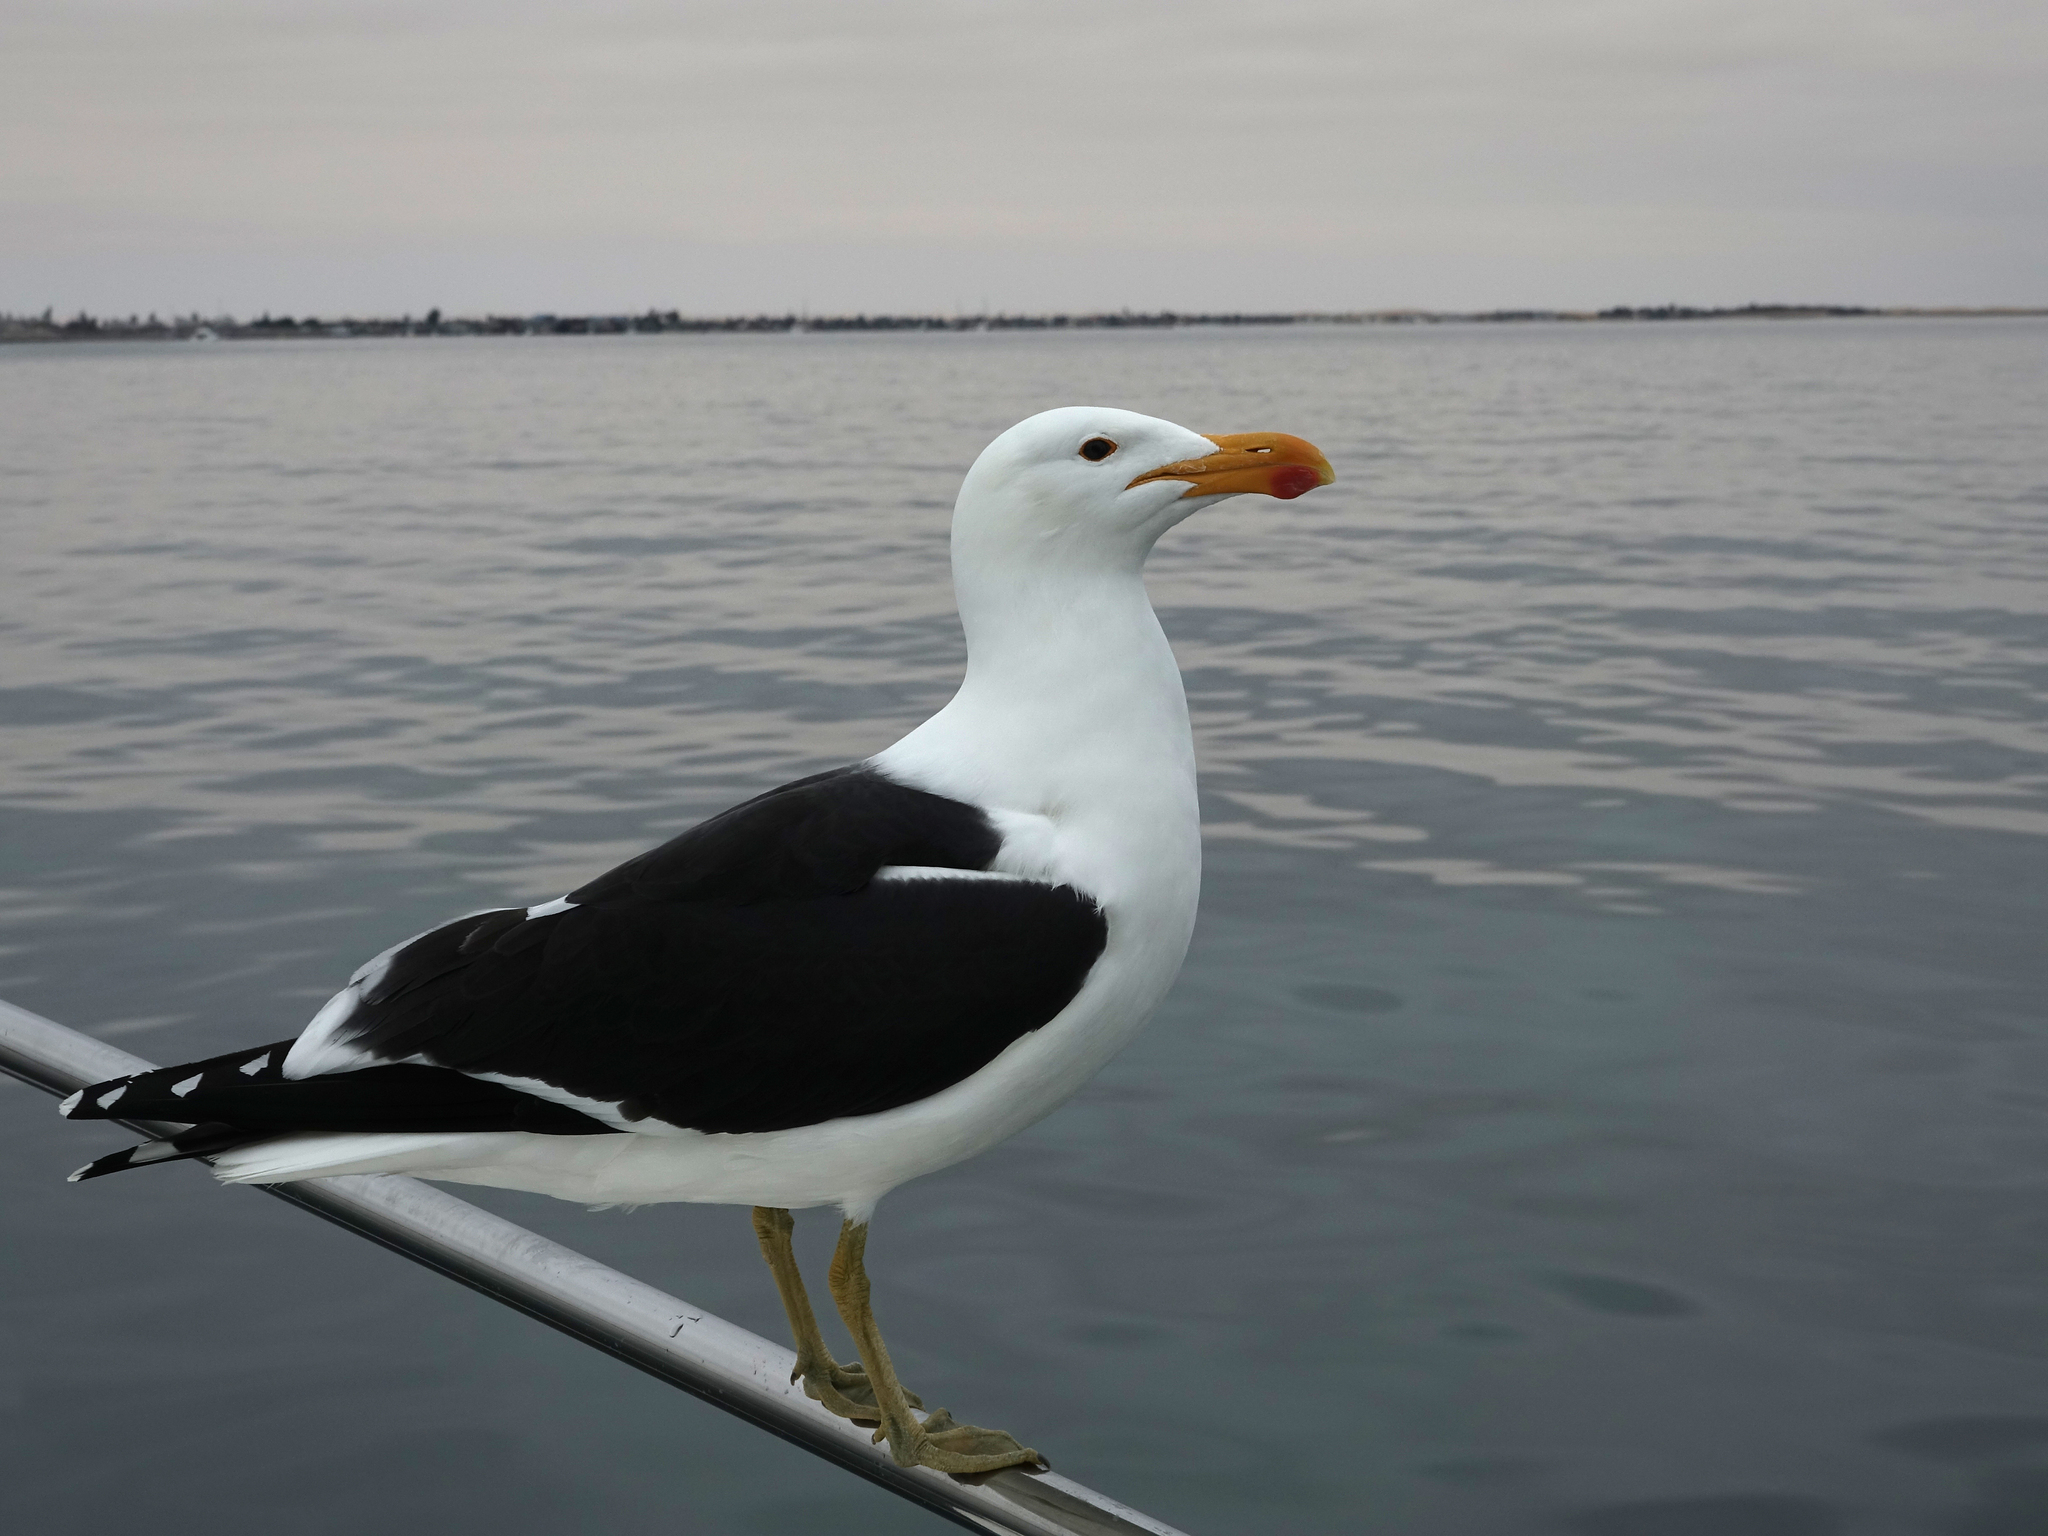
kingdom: Animalia
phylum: Chordata
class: Aves
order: Charadriiformes
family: Laridae
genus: Larus
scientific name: Larus dominicanus
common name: Kelp gull
